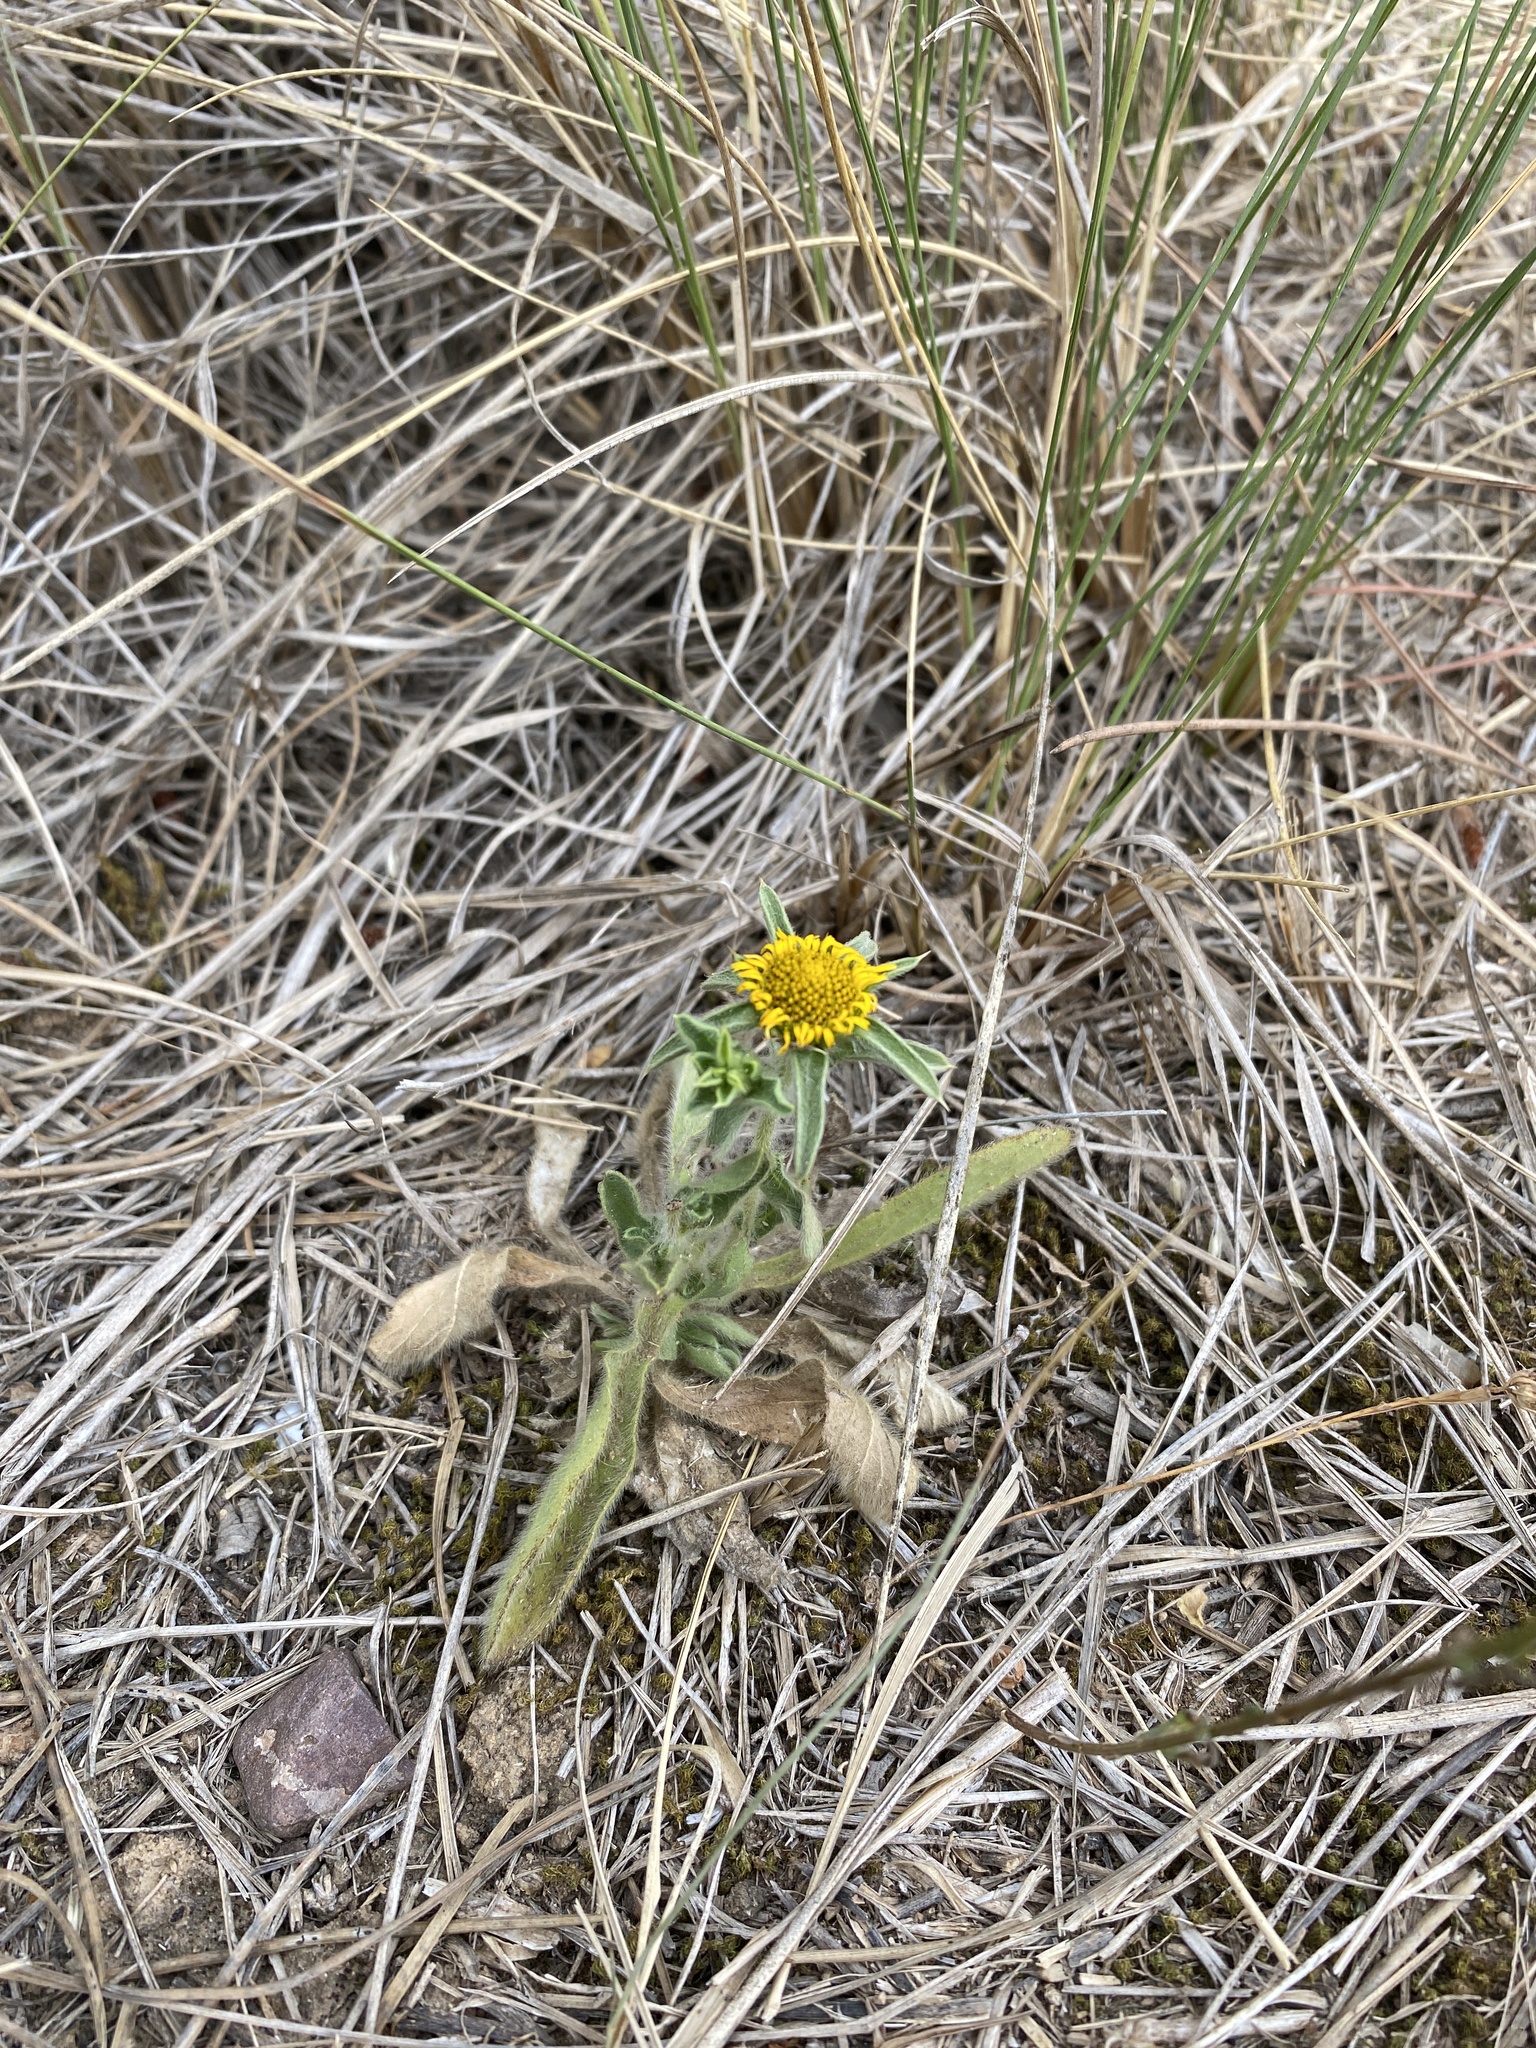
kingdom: Plantae
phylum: Tracheophyta
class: Magnoliopsida
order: Asterales
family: Asteraceae
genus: Pallenis
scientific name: Pallenis spinosa
